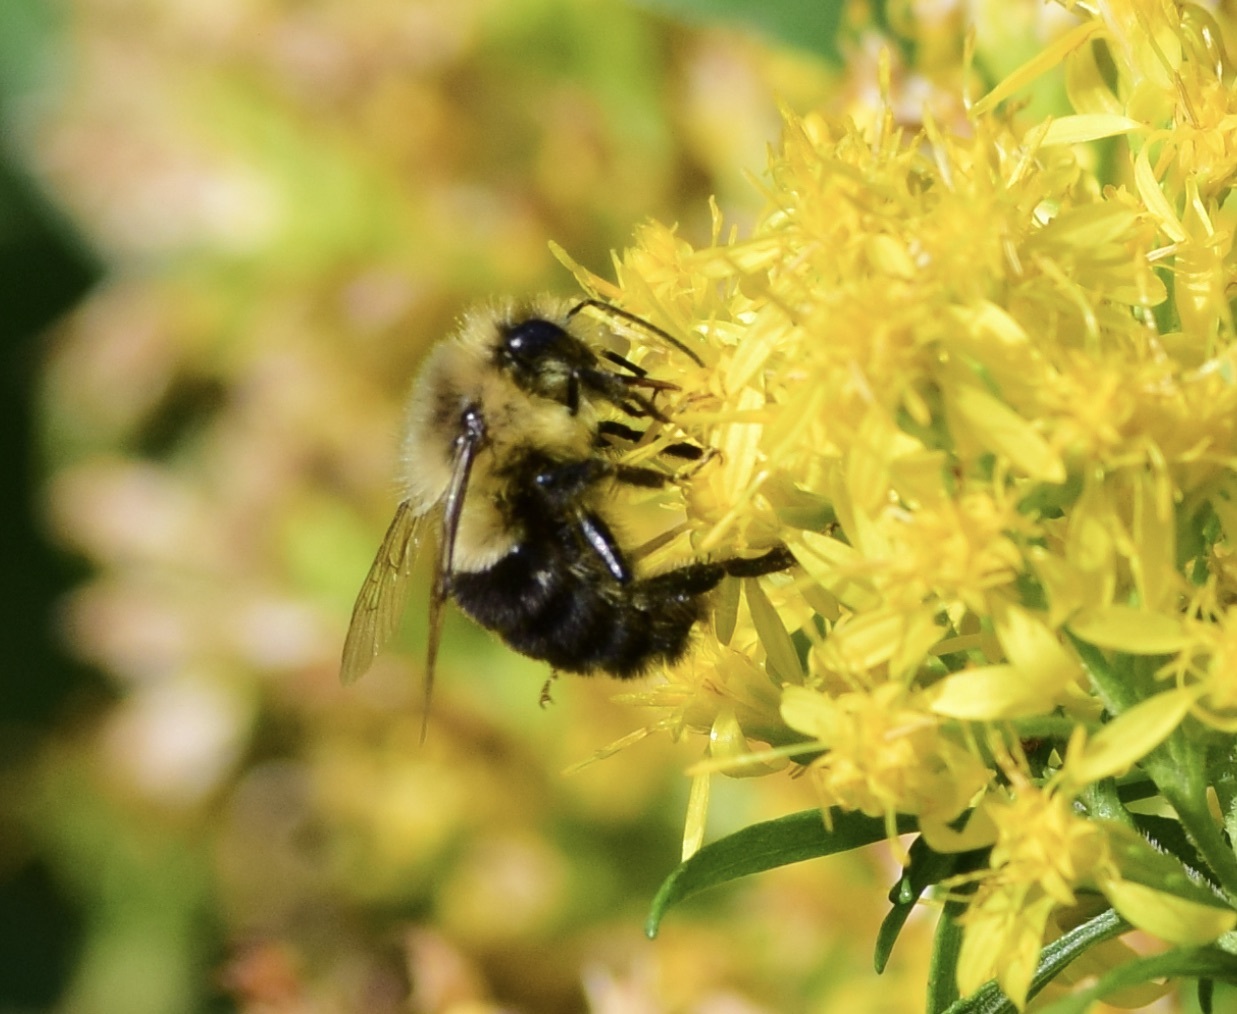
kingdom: Animalia
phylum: Arthropoda
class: Insecta
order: Hymenoptera
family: Apidae
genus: Bombus
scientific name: Bombus impatiens
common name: Common eastern bumble bee
